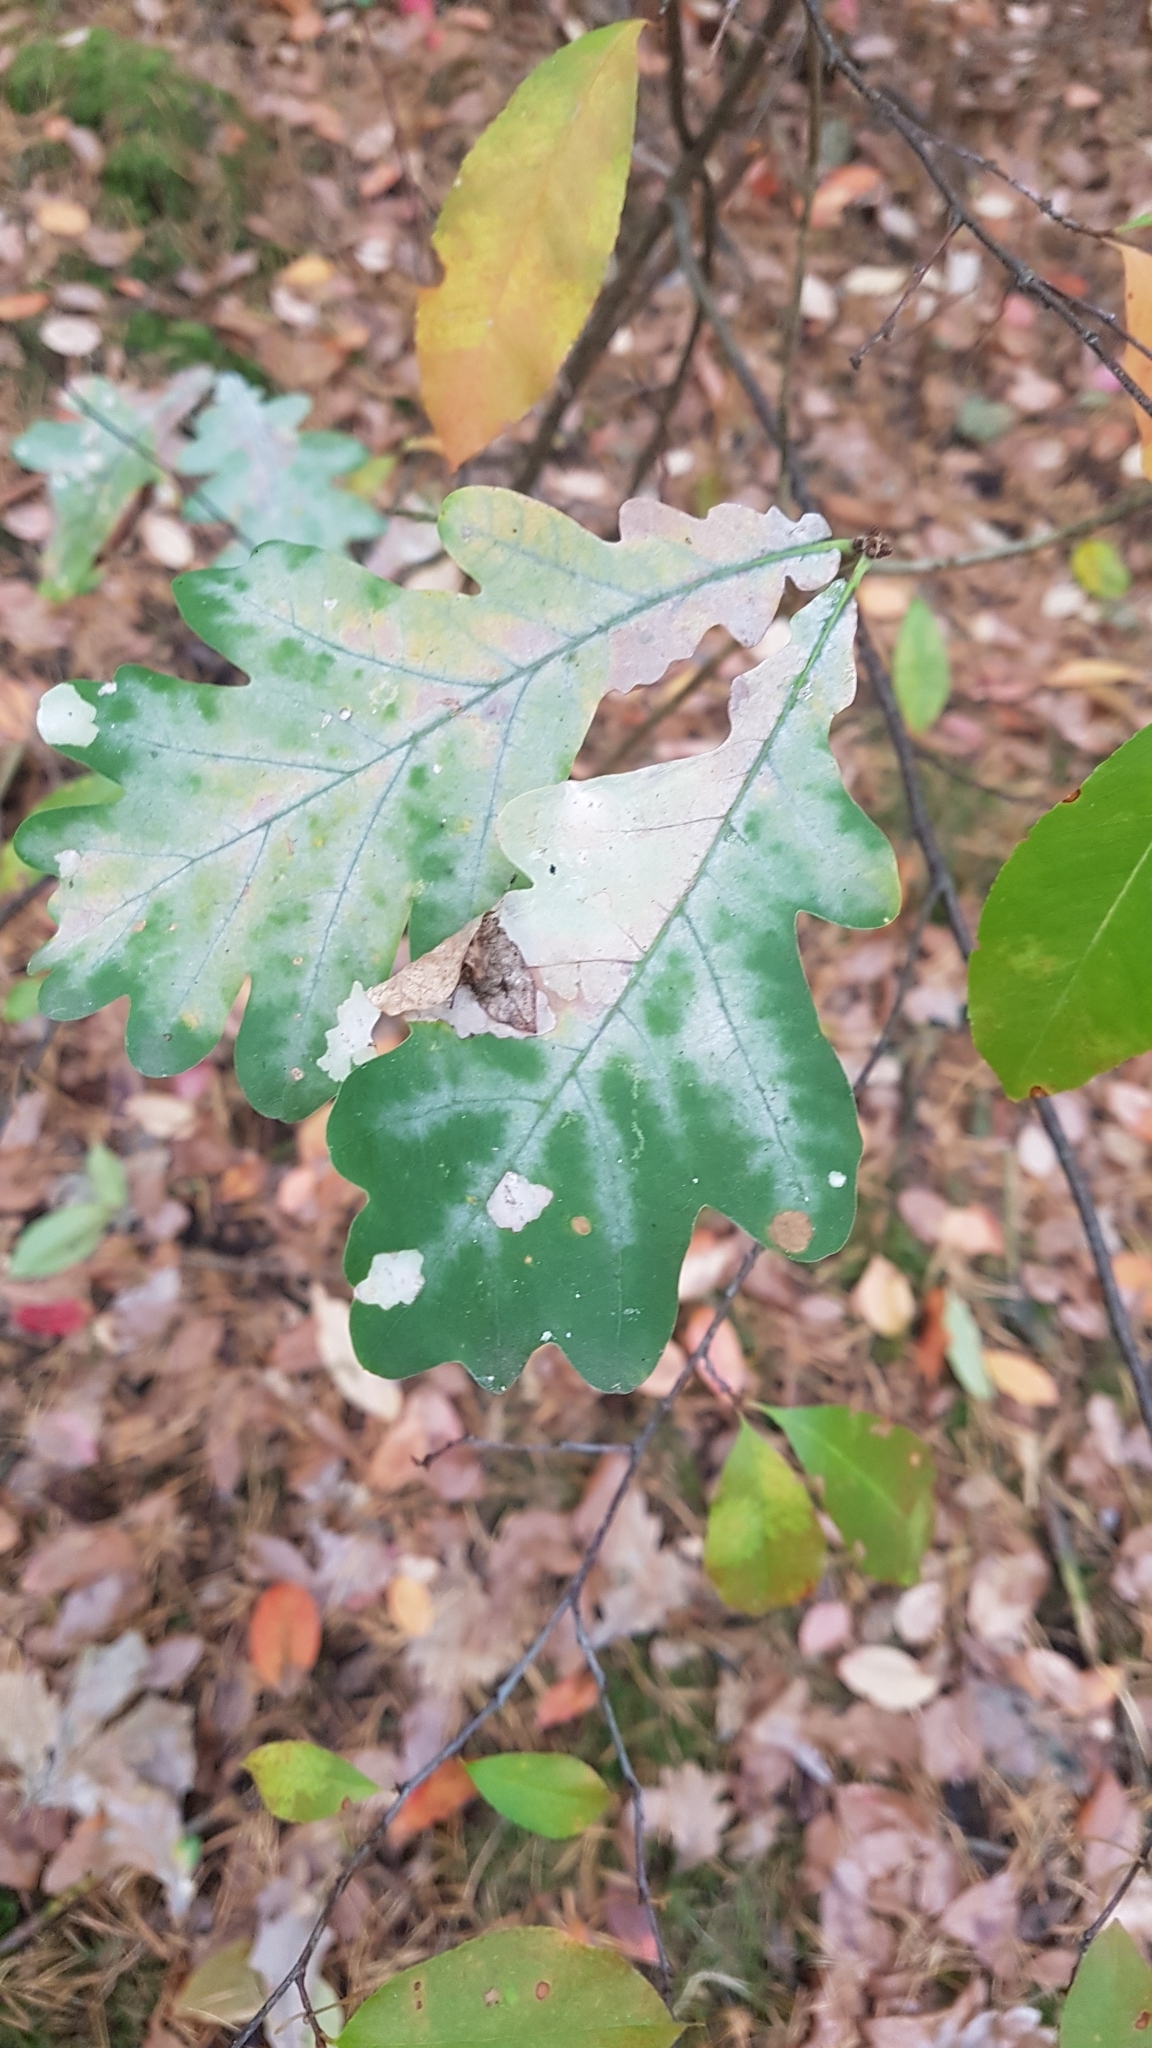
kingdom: Plantae
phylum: Tracheophyta
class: Magnoliopsida
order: Fagales
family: Fagaceae
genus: Quercus
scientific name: Quercus robur
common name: Pedunculate oak
